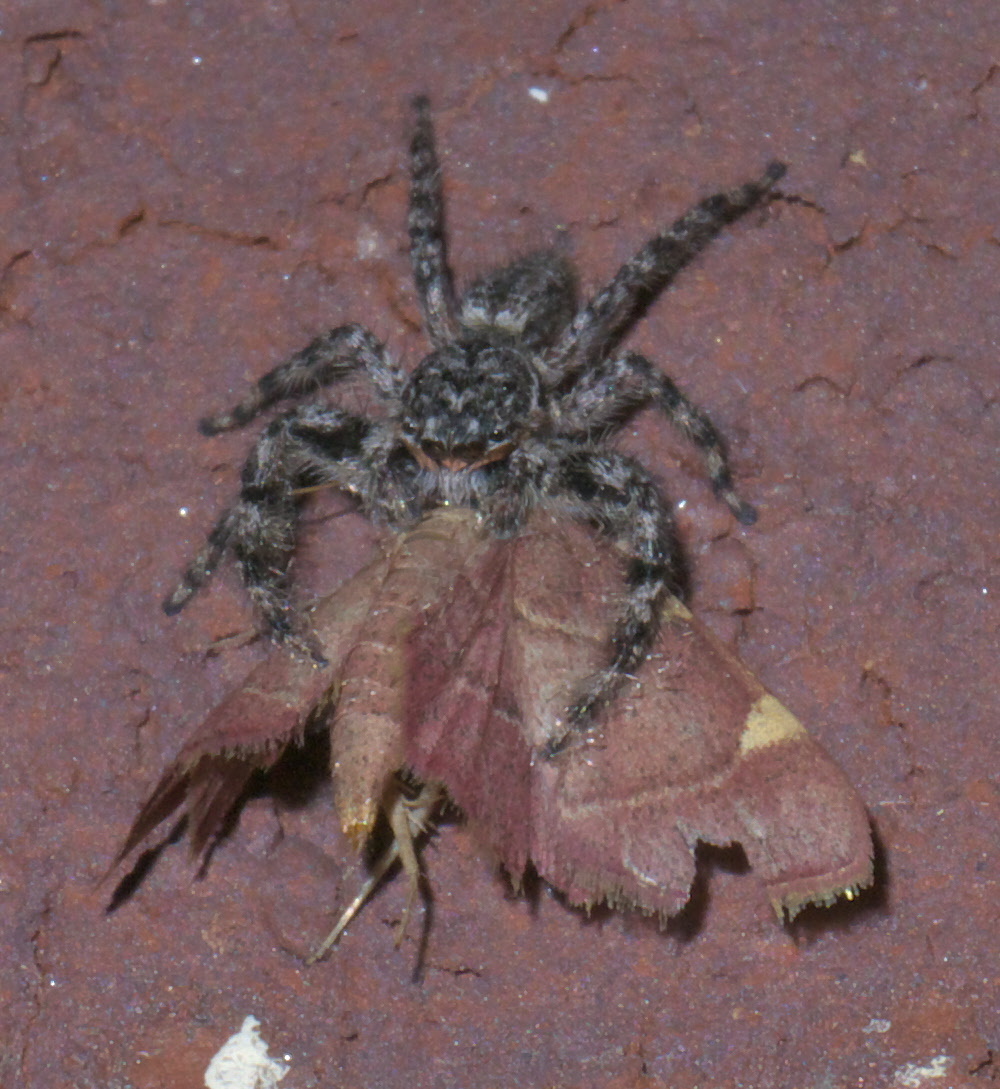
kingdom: Animalia
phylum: Arthropoda
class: Arachnida
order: Araneae
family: Salticidae
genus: Platycryptus
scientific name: Platycryptus undatus
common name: Tan jumping spider
